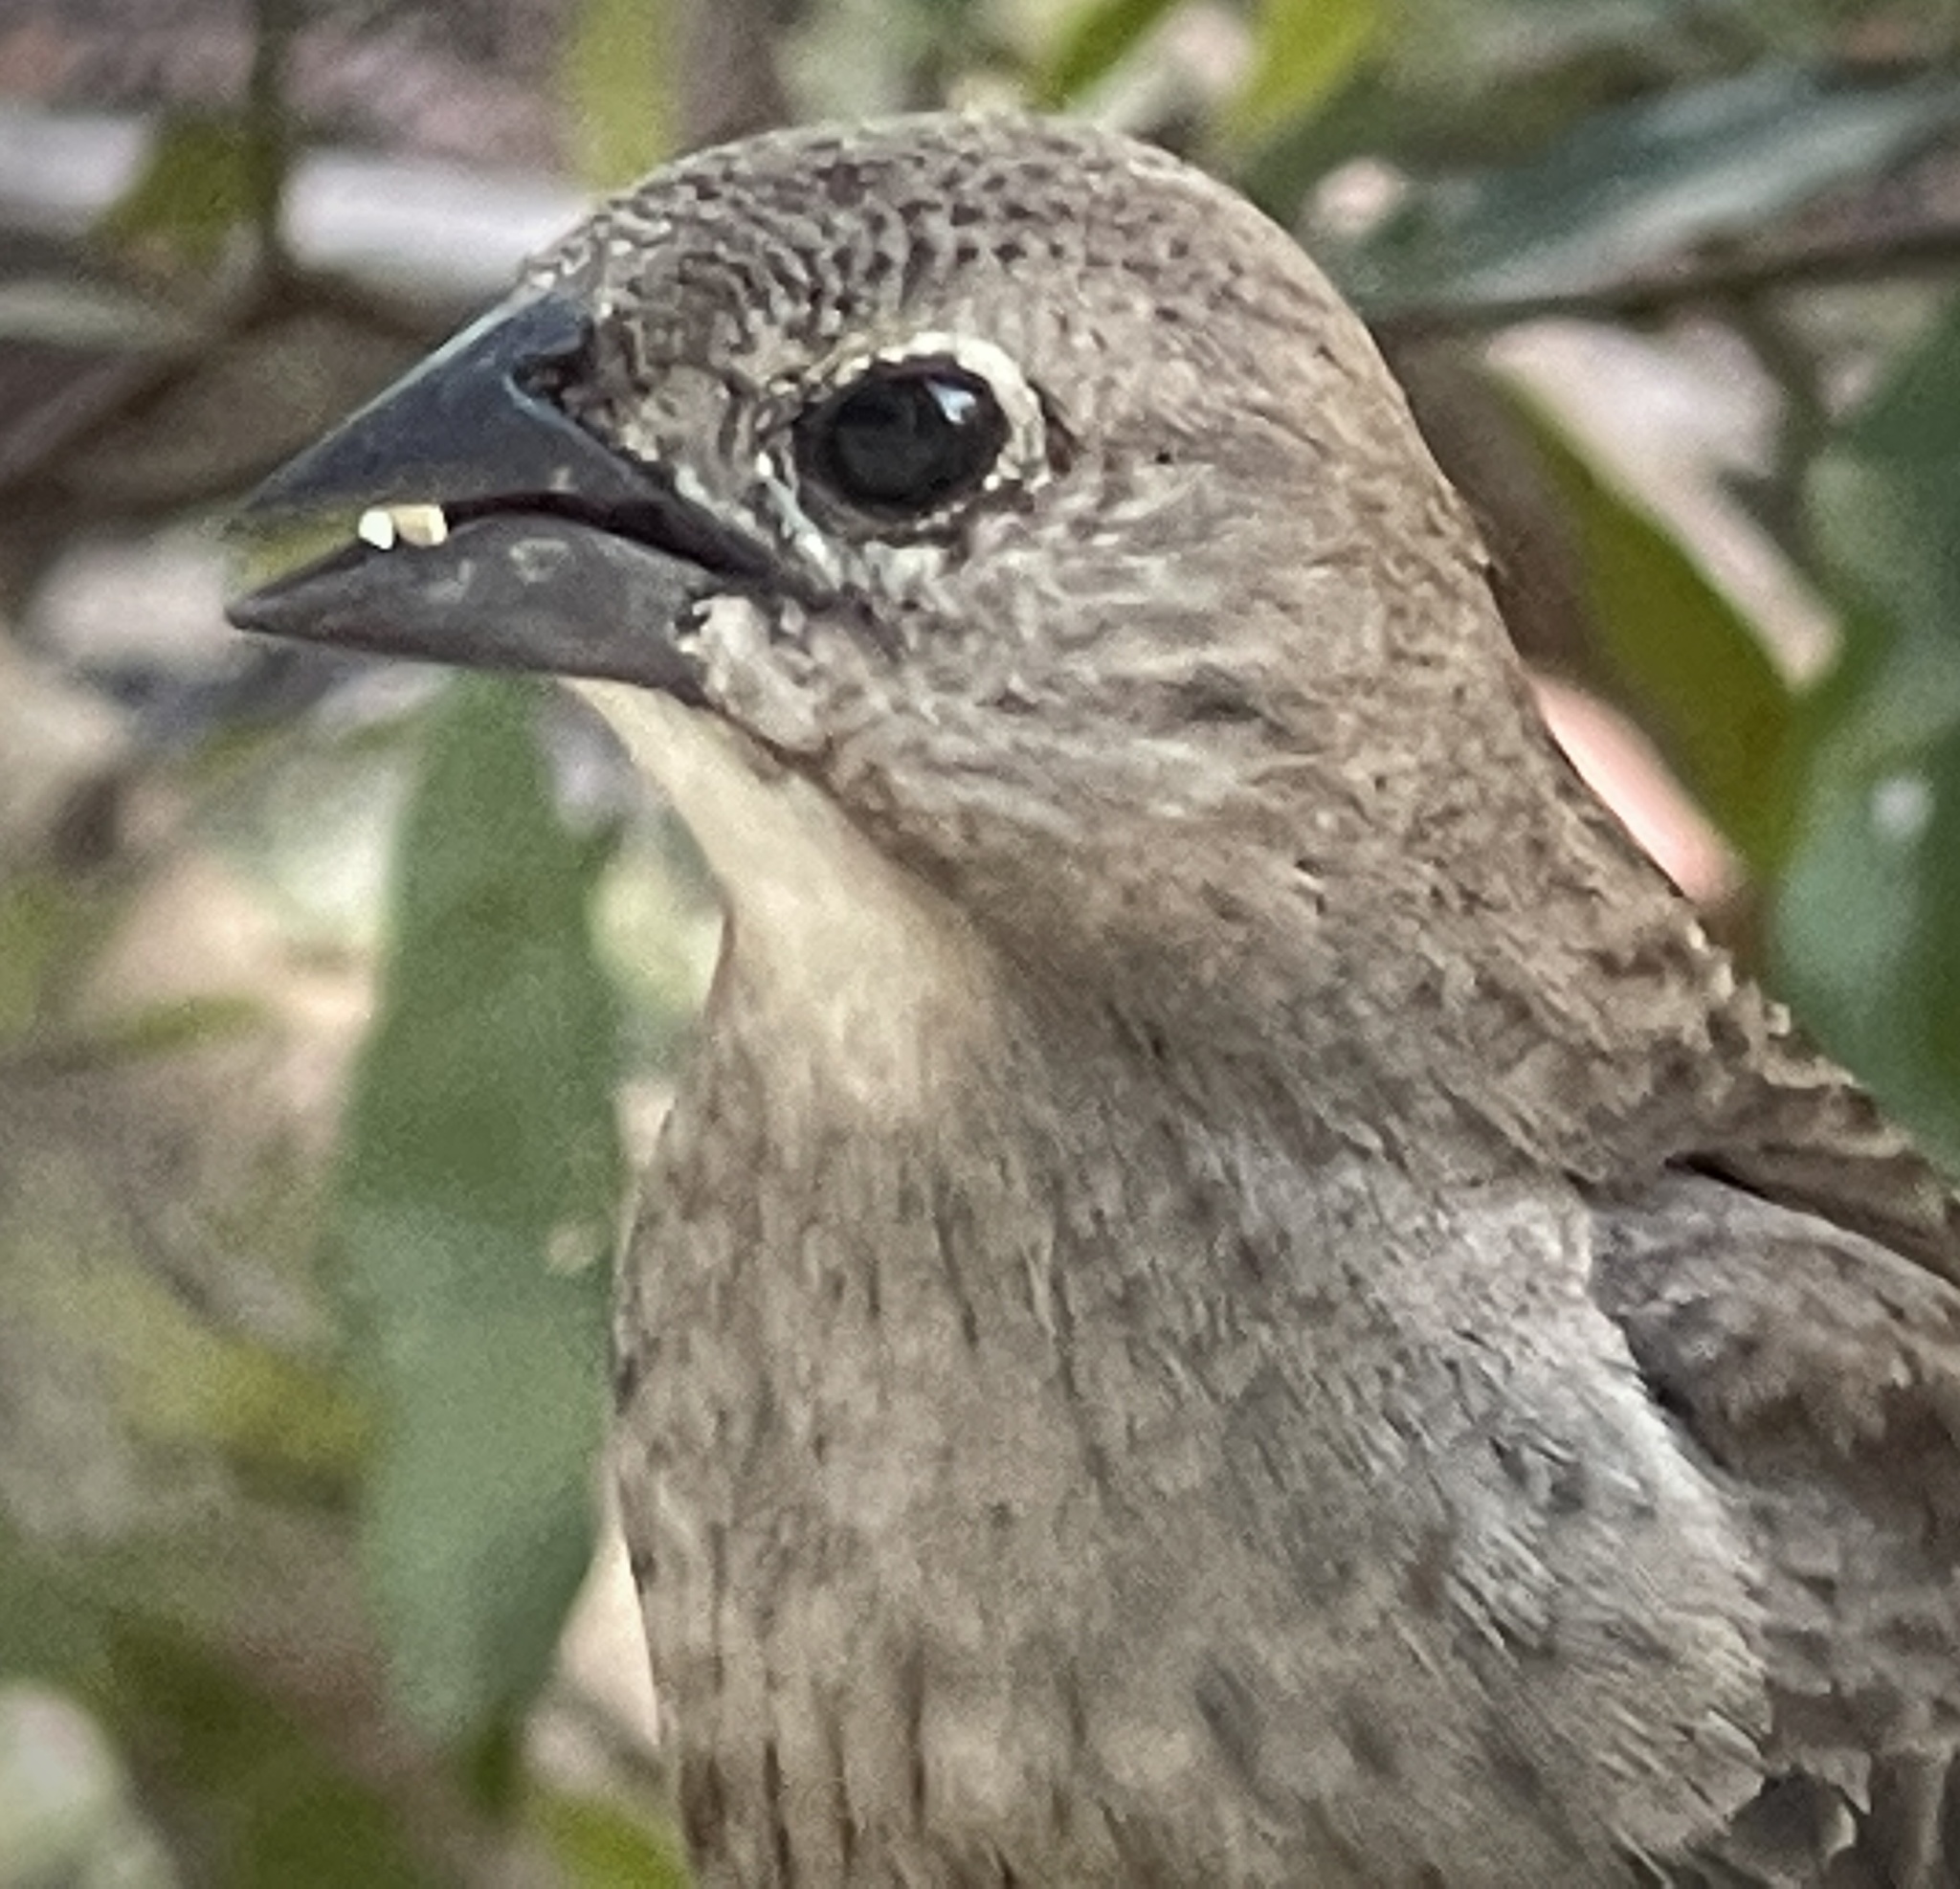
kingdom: Animalia
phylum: Chordata
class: Aves
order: Passeriformes
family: Icteridae
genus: Molothrus
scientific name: Molothrus ater
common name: Brown-headed cowbird
